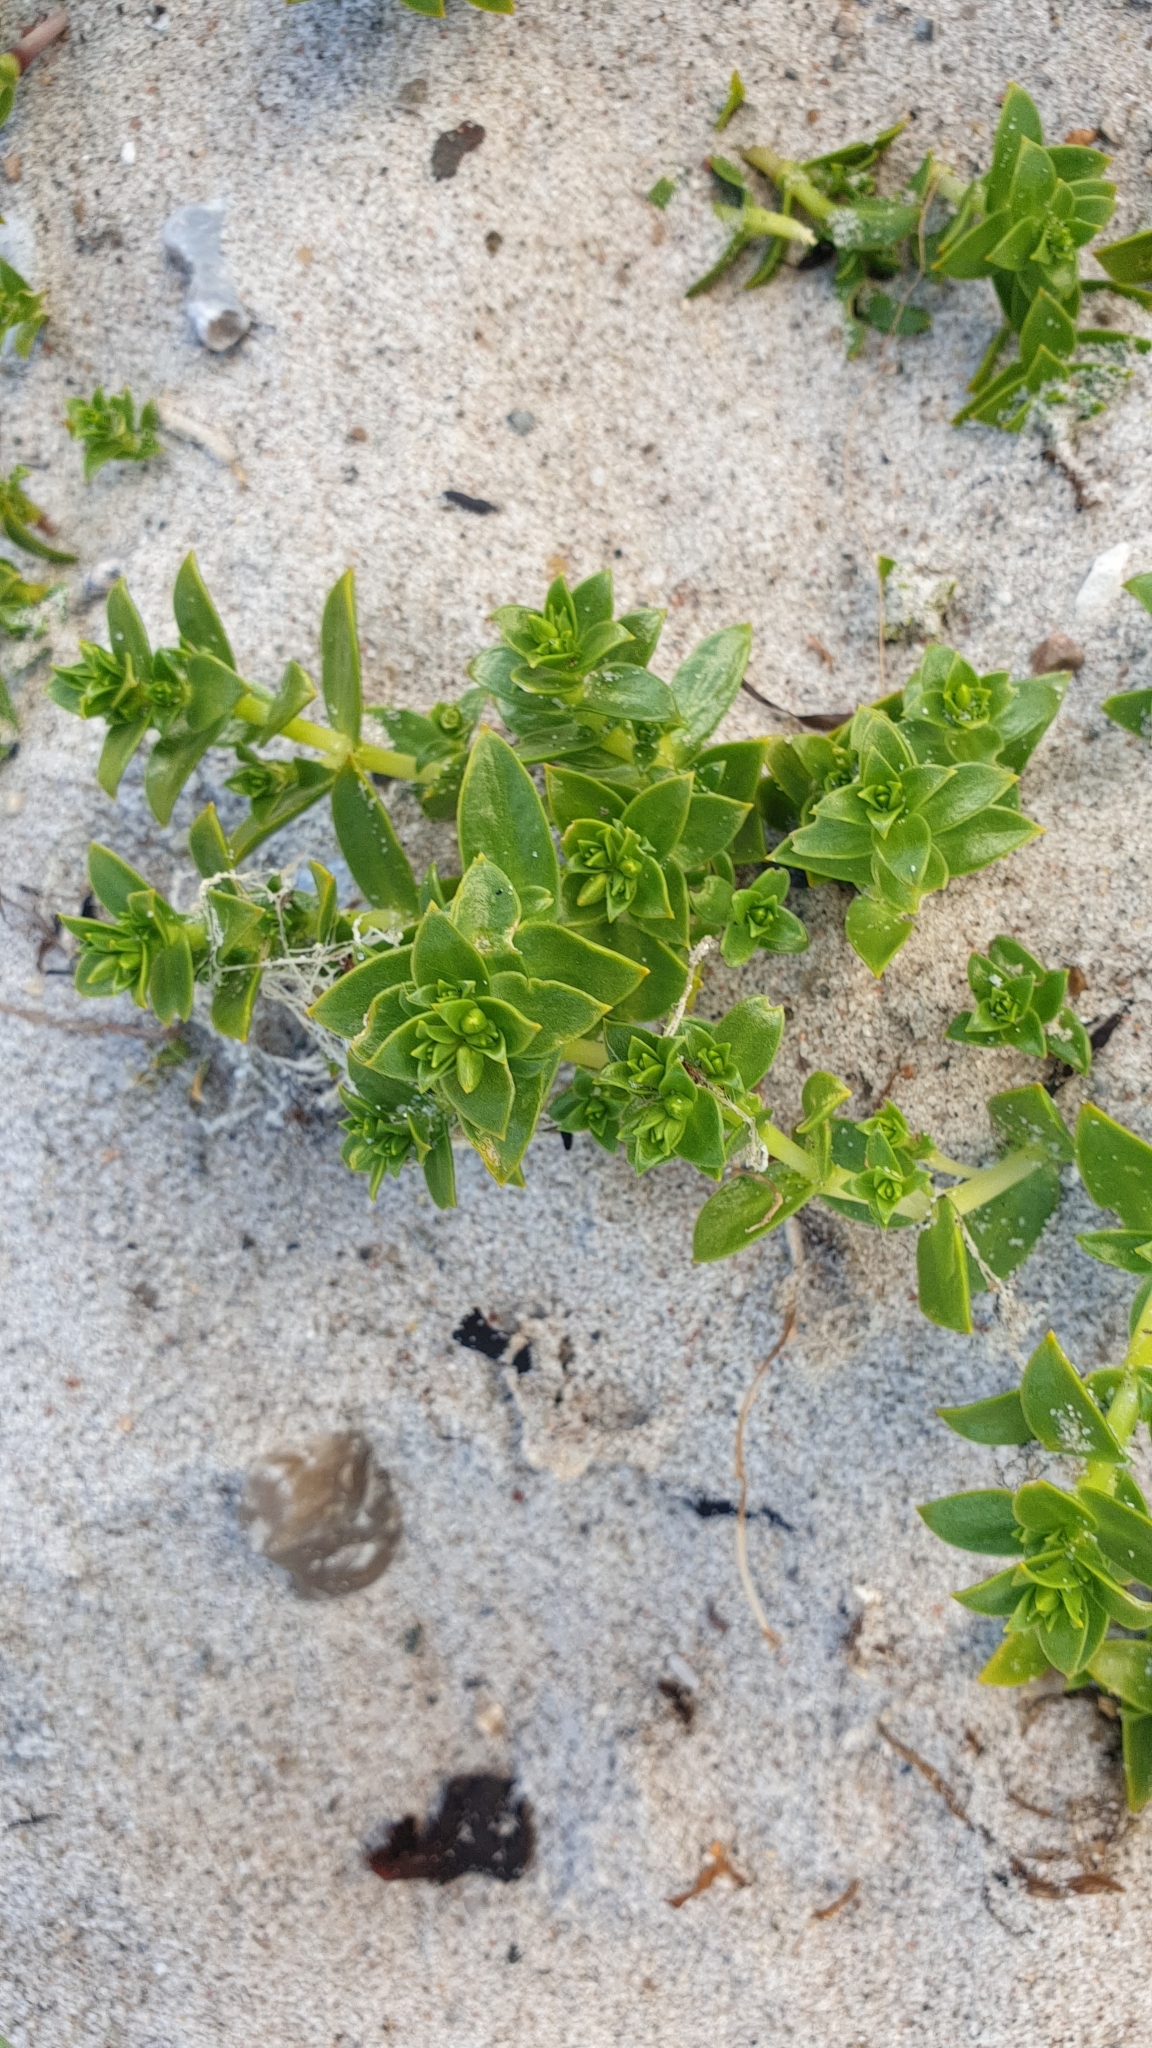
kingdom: Plantae
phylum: Tracheophyta
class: Magnoliopsida
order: Caryophyllales
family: Caryophyllaceae
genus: Honckenya
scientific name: Honckenya peploides
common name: Sea sandwort
